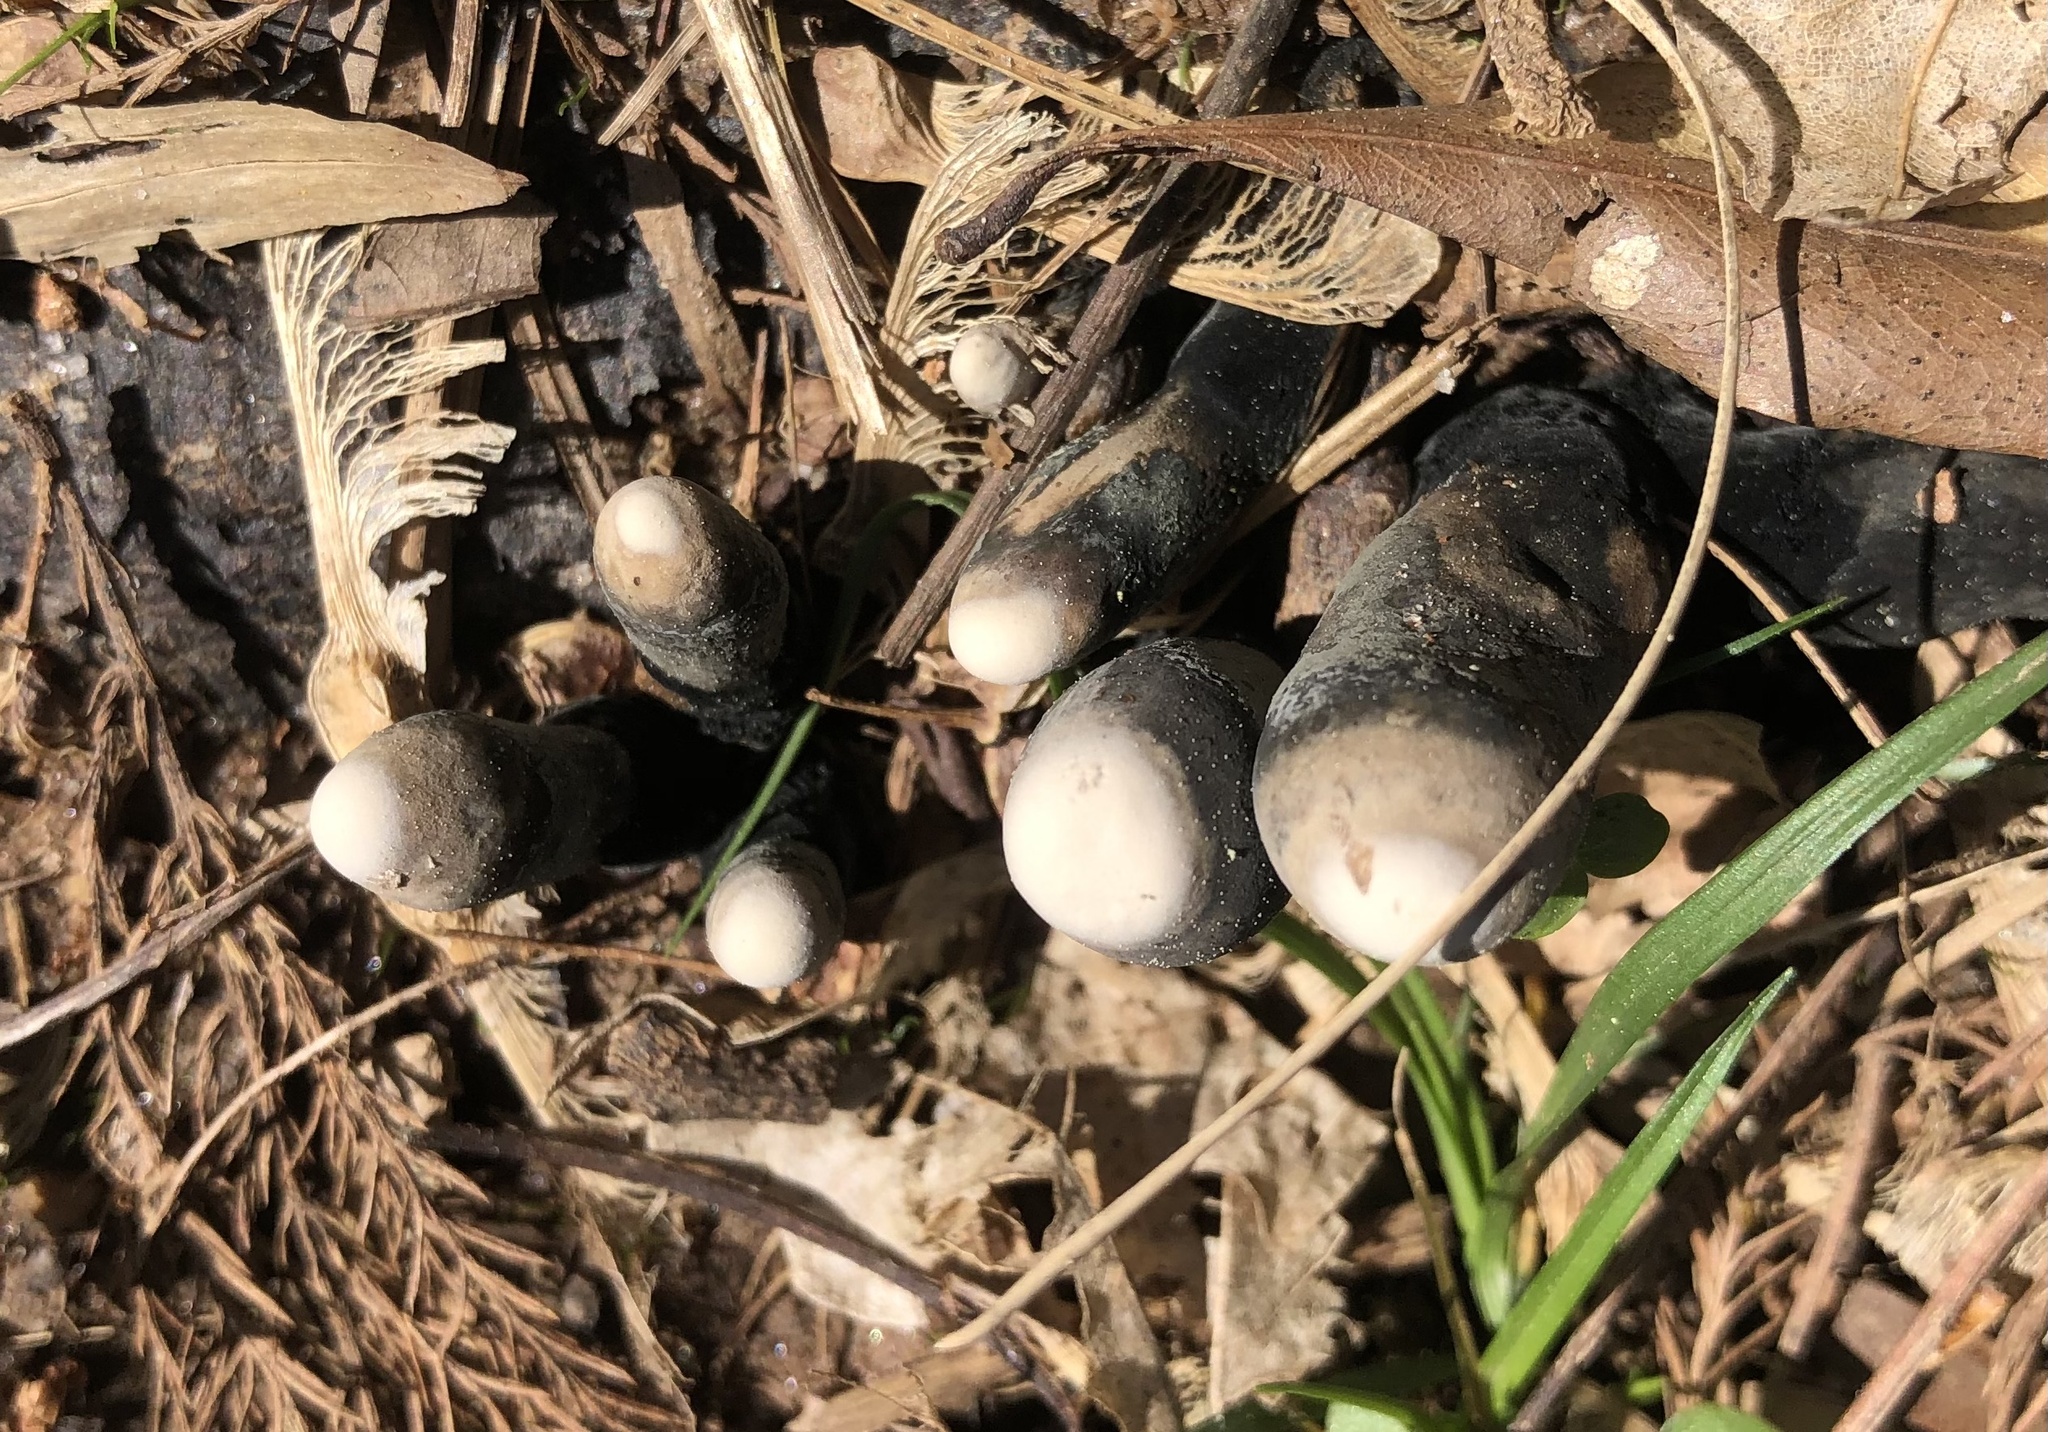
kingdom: Fungi
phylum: Ascomycota
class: Sordariomycetes
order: Xylariales
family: Xylariaceae
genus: Xylaria
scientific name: Xylaria polymorpha
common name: Dead man's fingers
